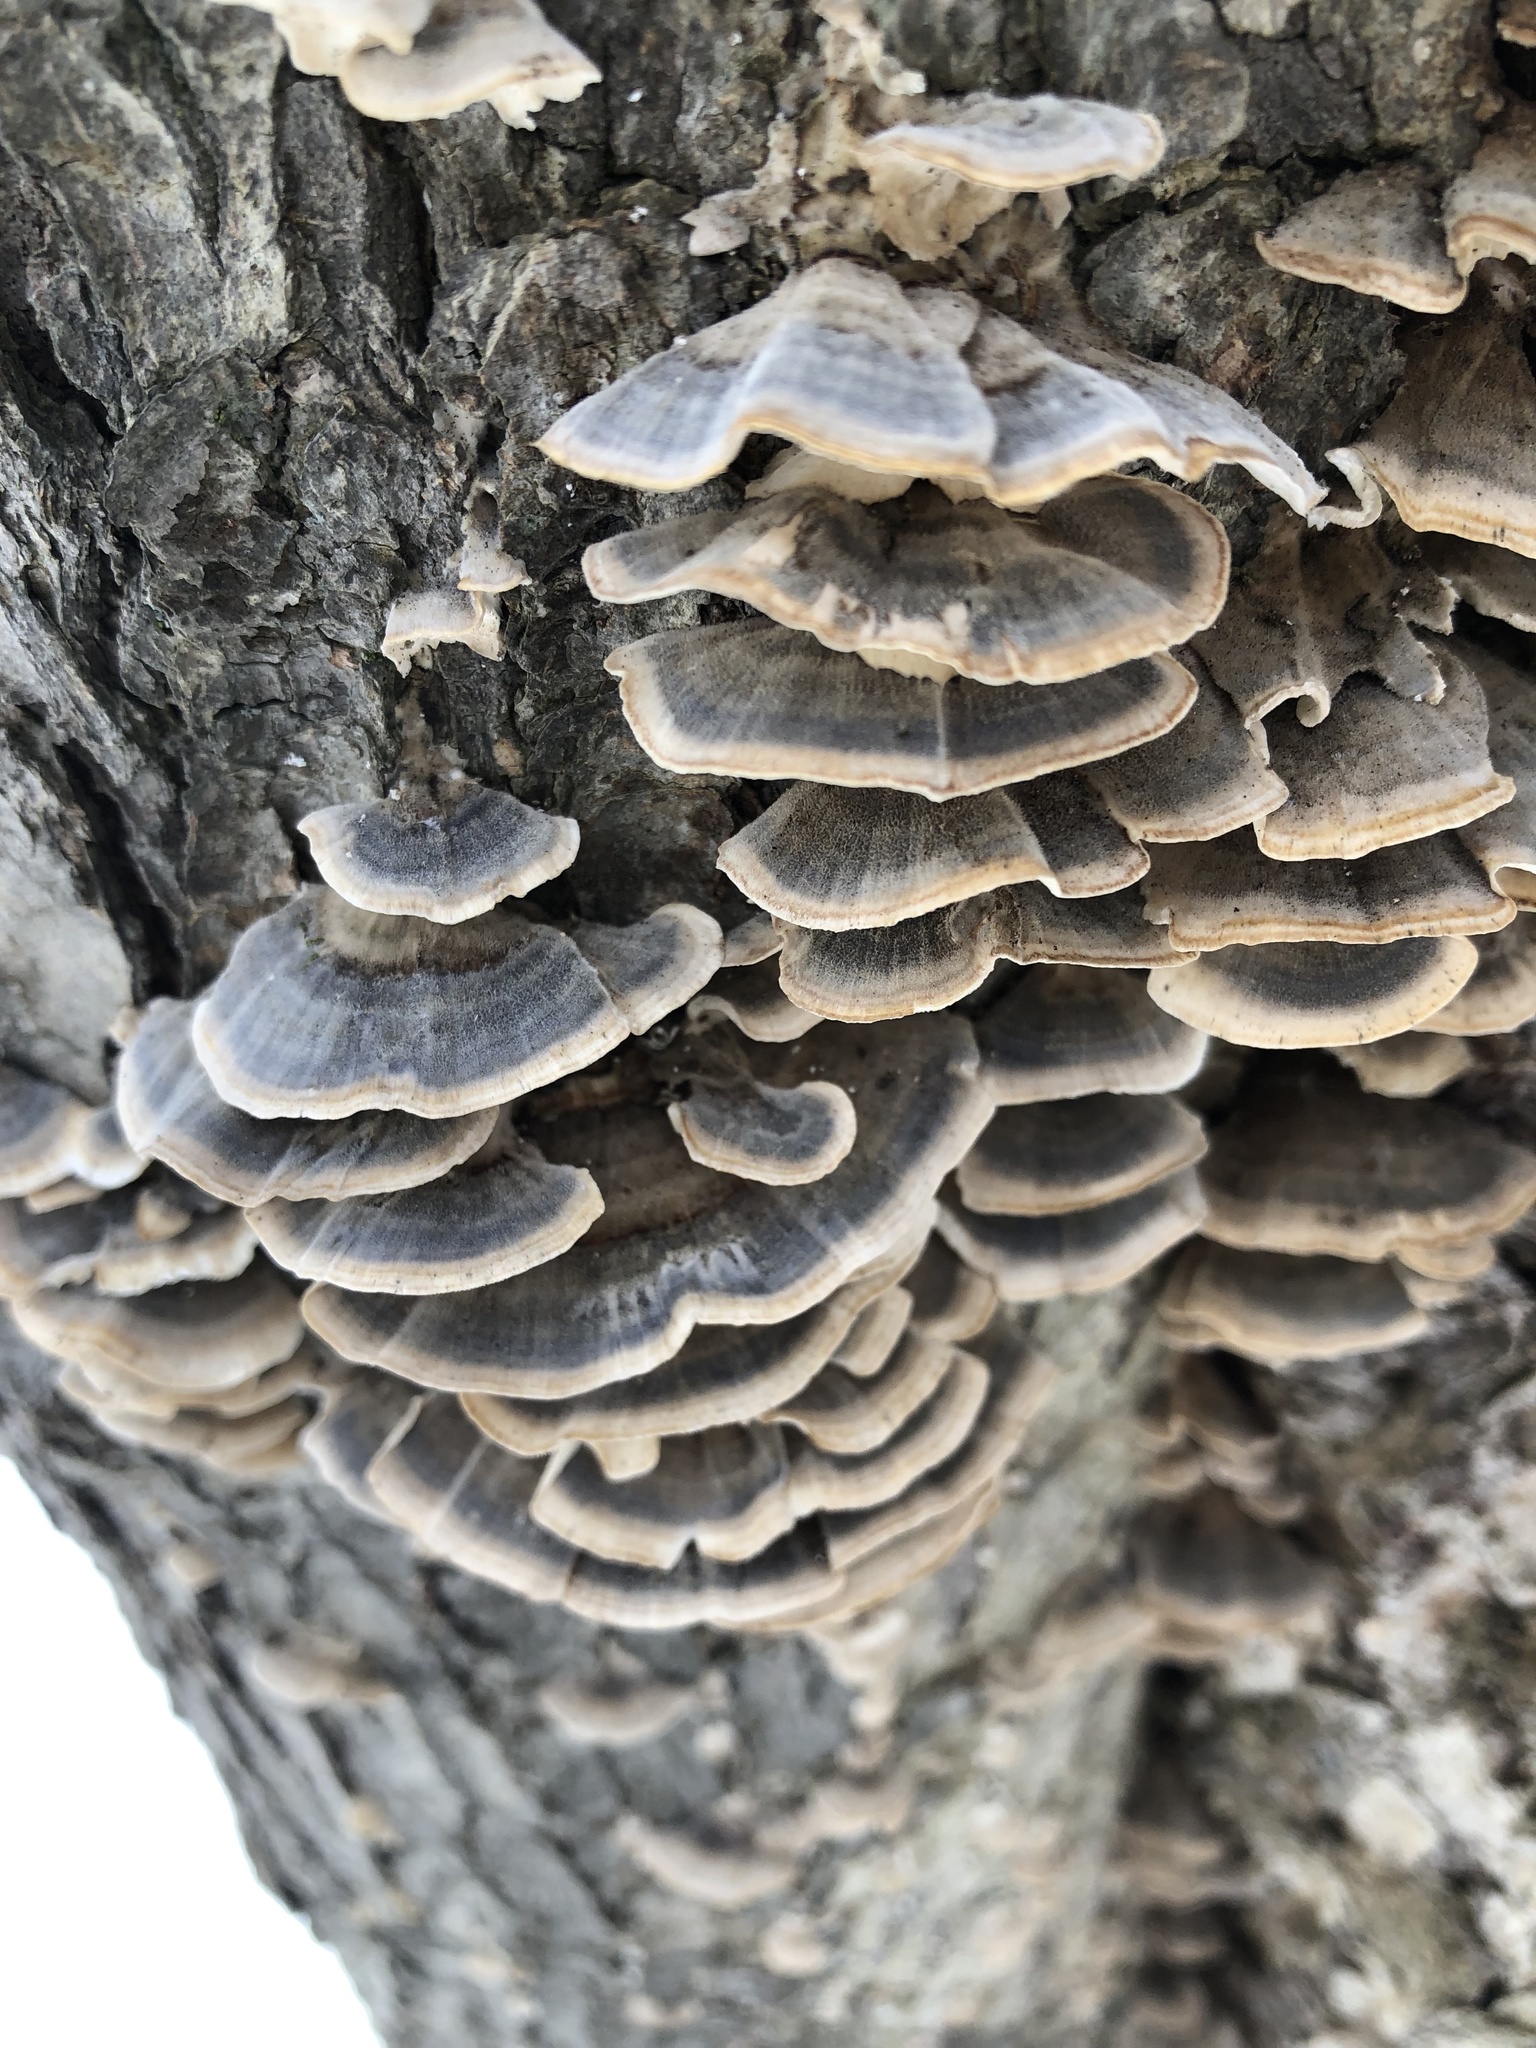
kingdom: Fungi
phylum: Basidiomycota
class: Agaricomycetes
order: Polyporales
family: Polyporaceae
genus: Trametes
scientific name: Trametes versicolor
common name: Turkeytail
